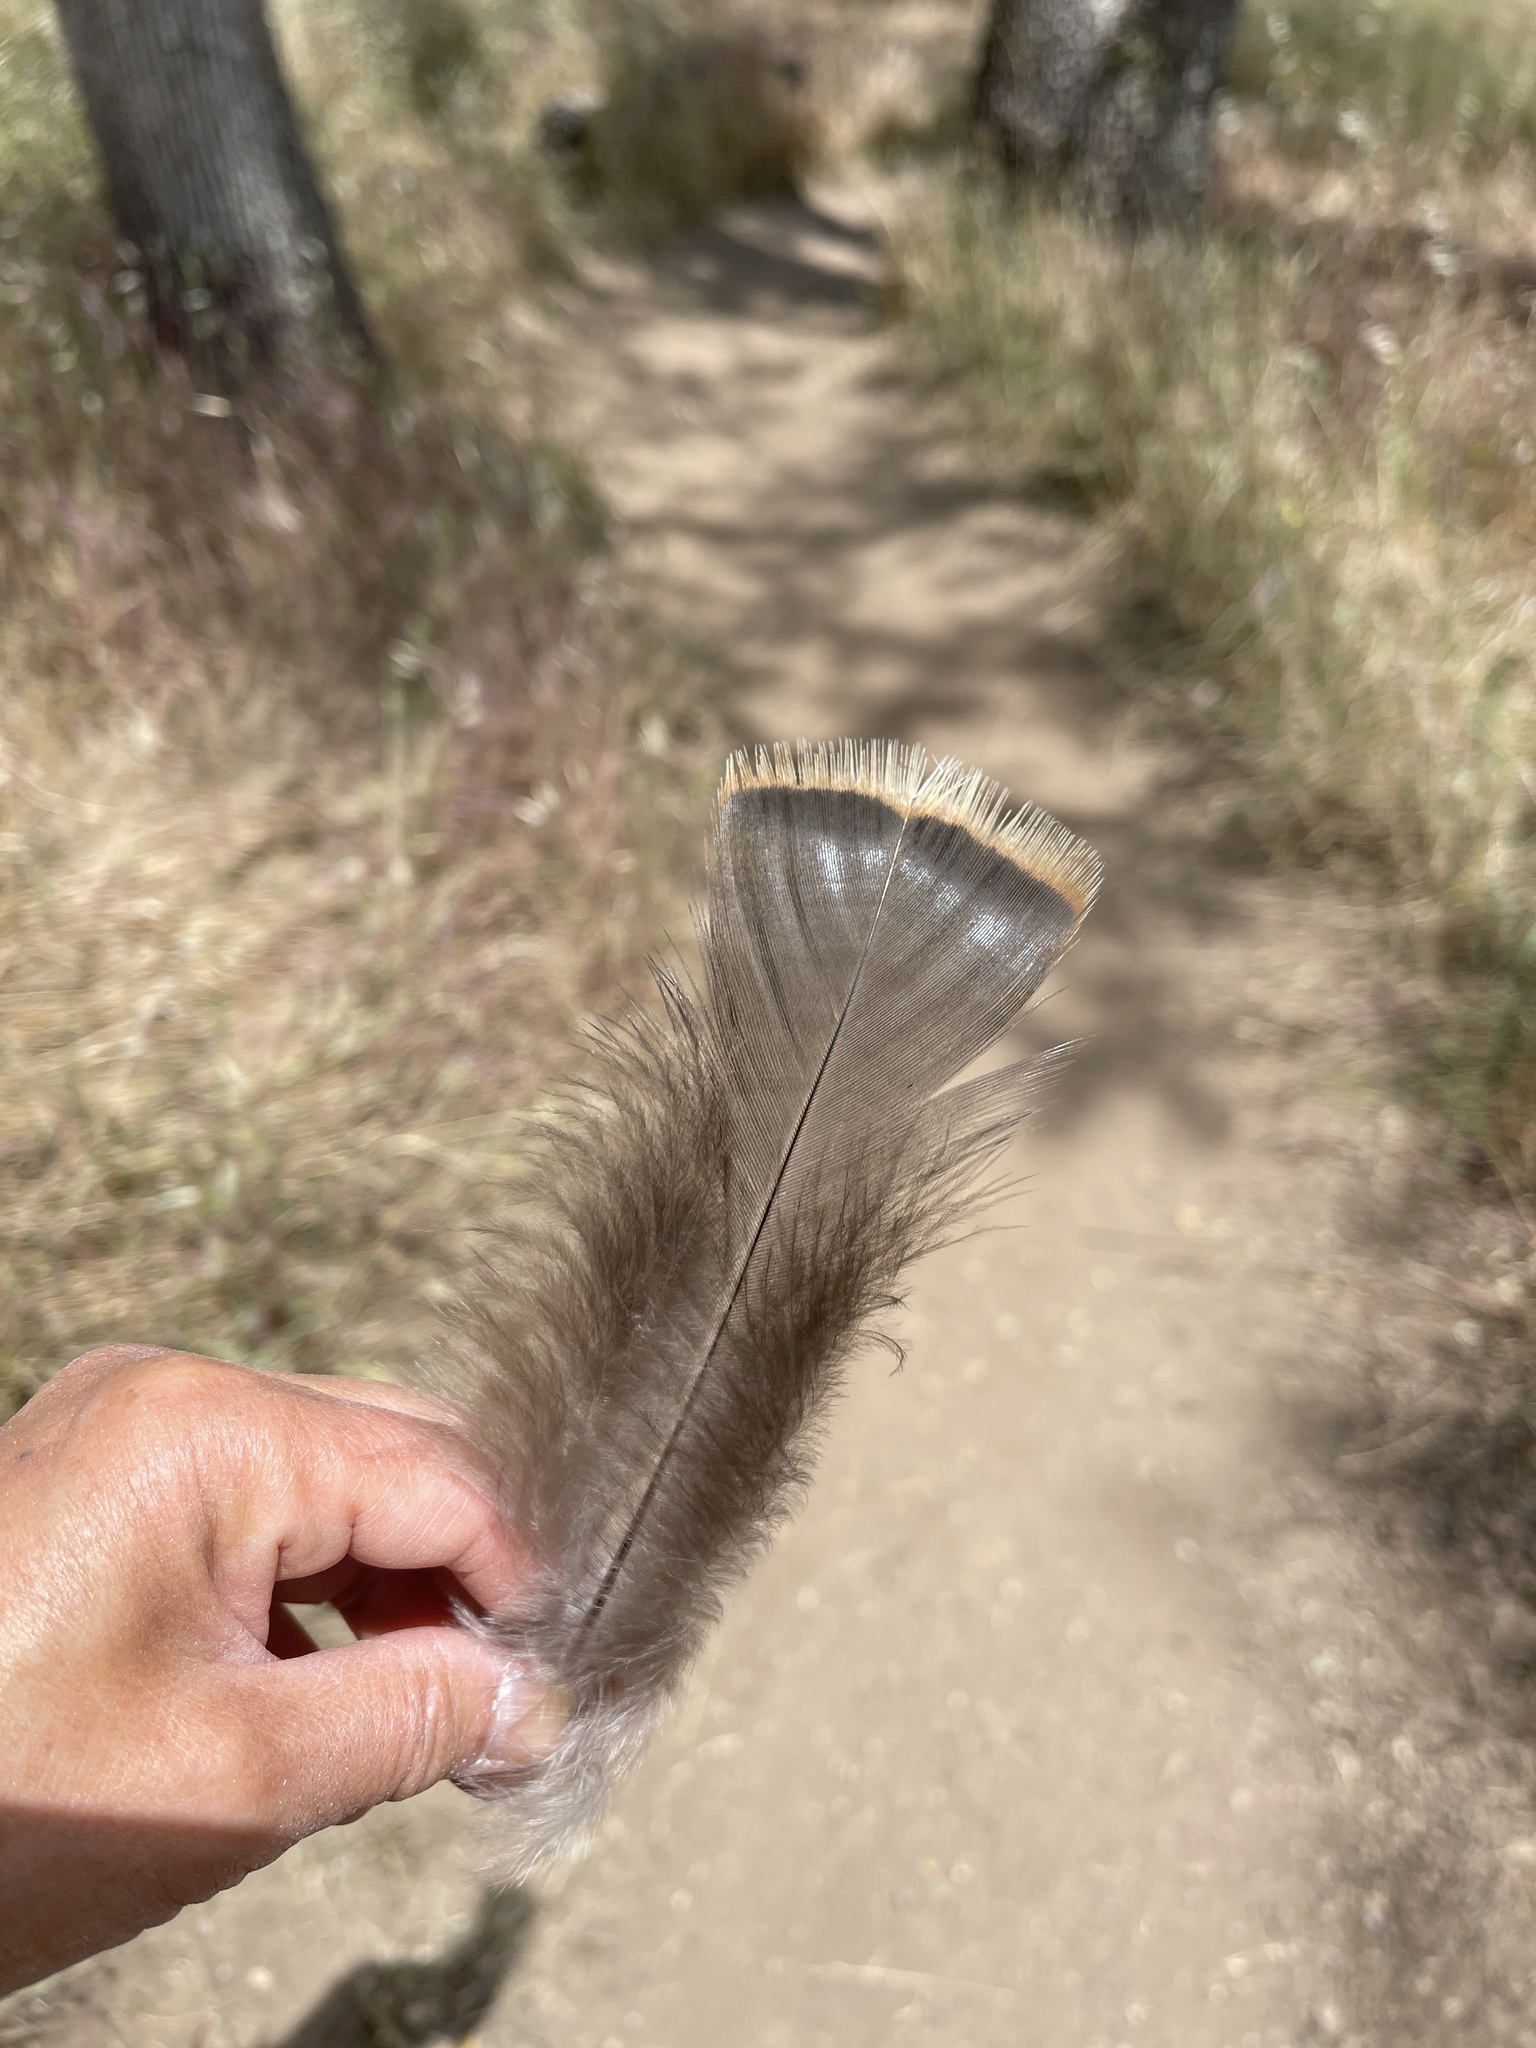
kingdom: Animalia
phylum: Chordata
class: Aves
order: Galliformes
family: Phasianidae
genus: Meleagris
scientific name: Meleagris gallopavo
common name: Wild turkey
